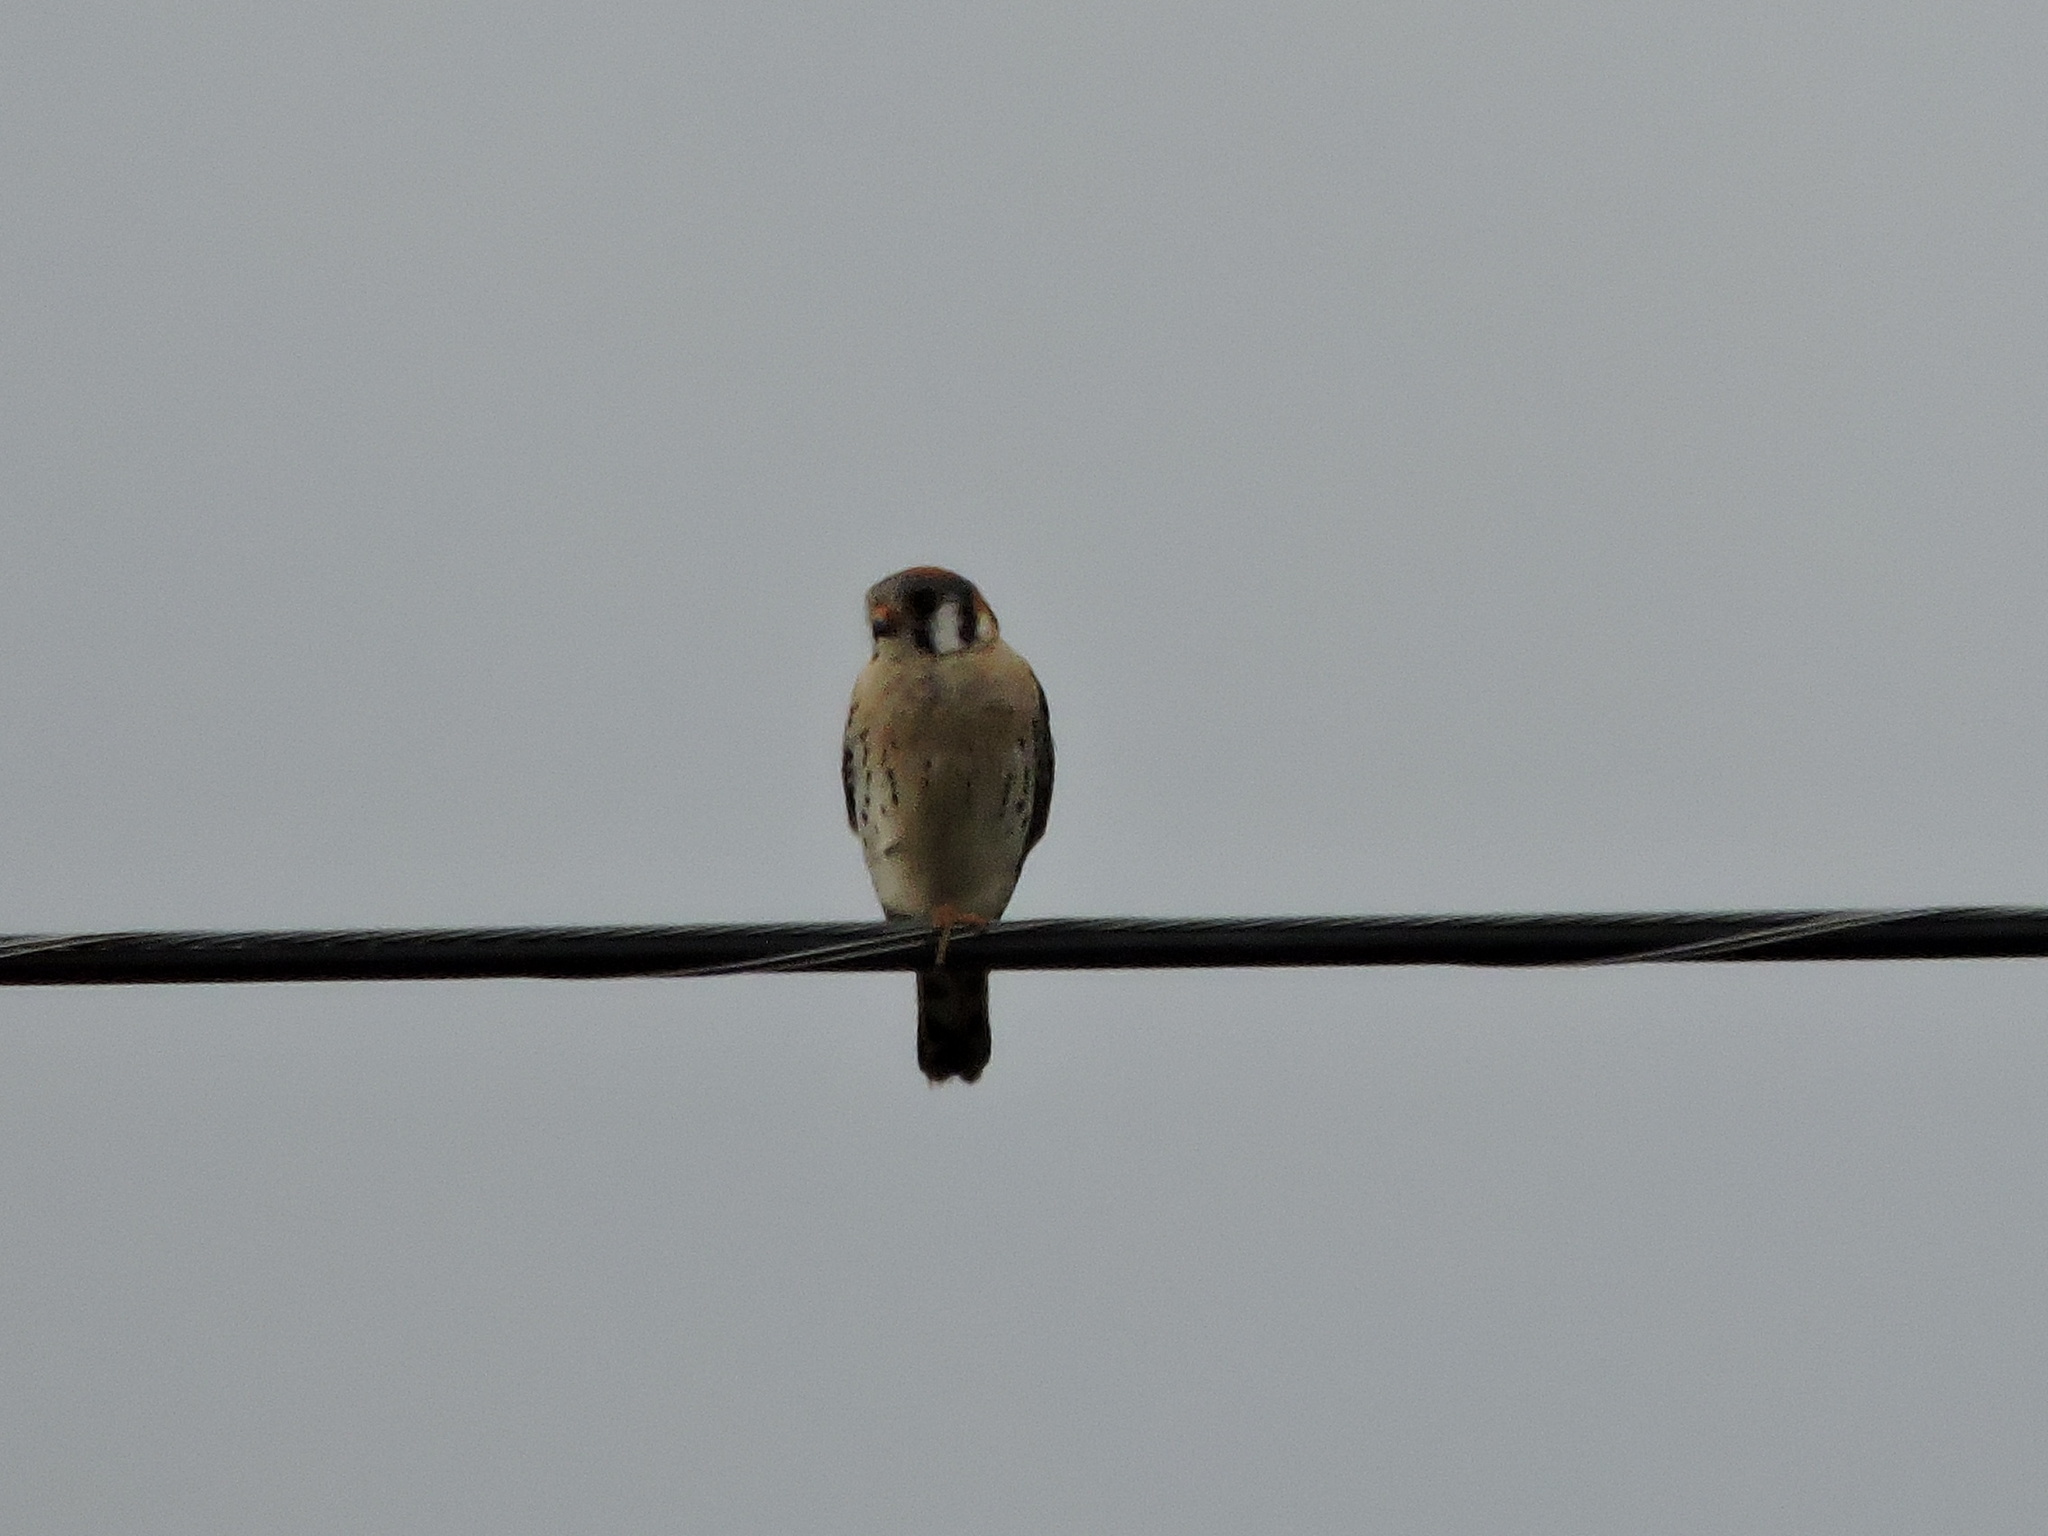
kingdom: Animalia
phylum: Chordata
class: Aves
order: Falconiformes
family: Falconidae
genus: Falco
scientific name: Falco sparverius
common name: American kestrel
